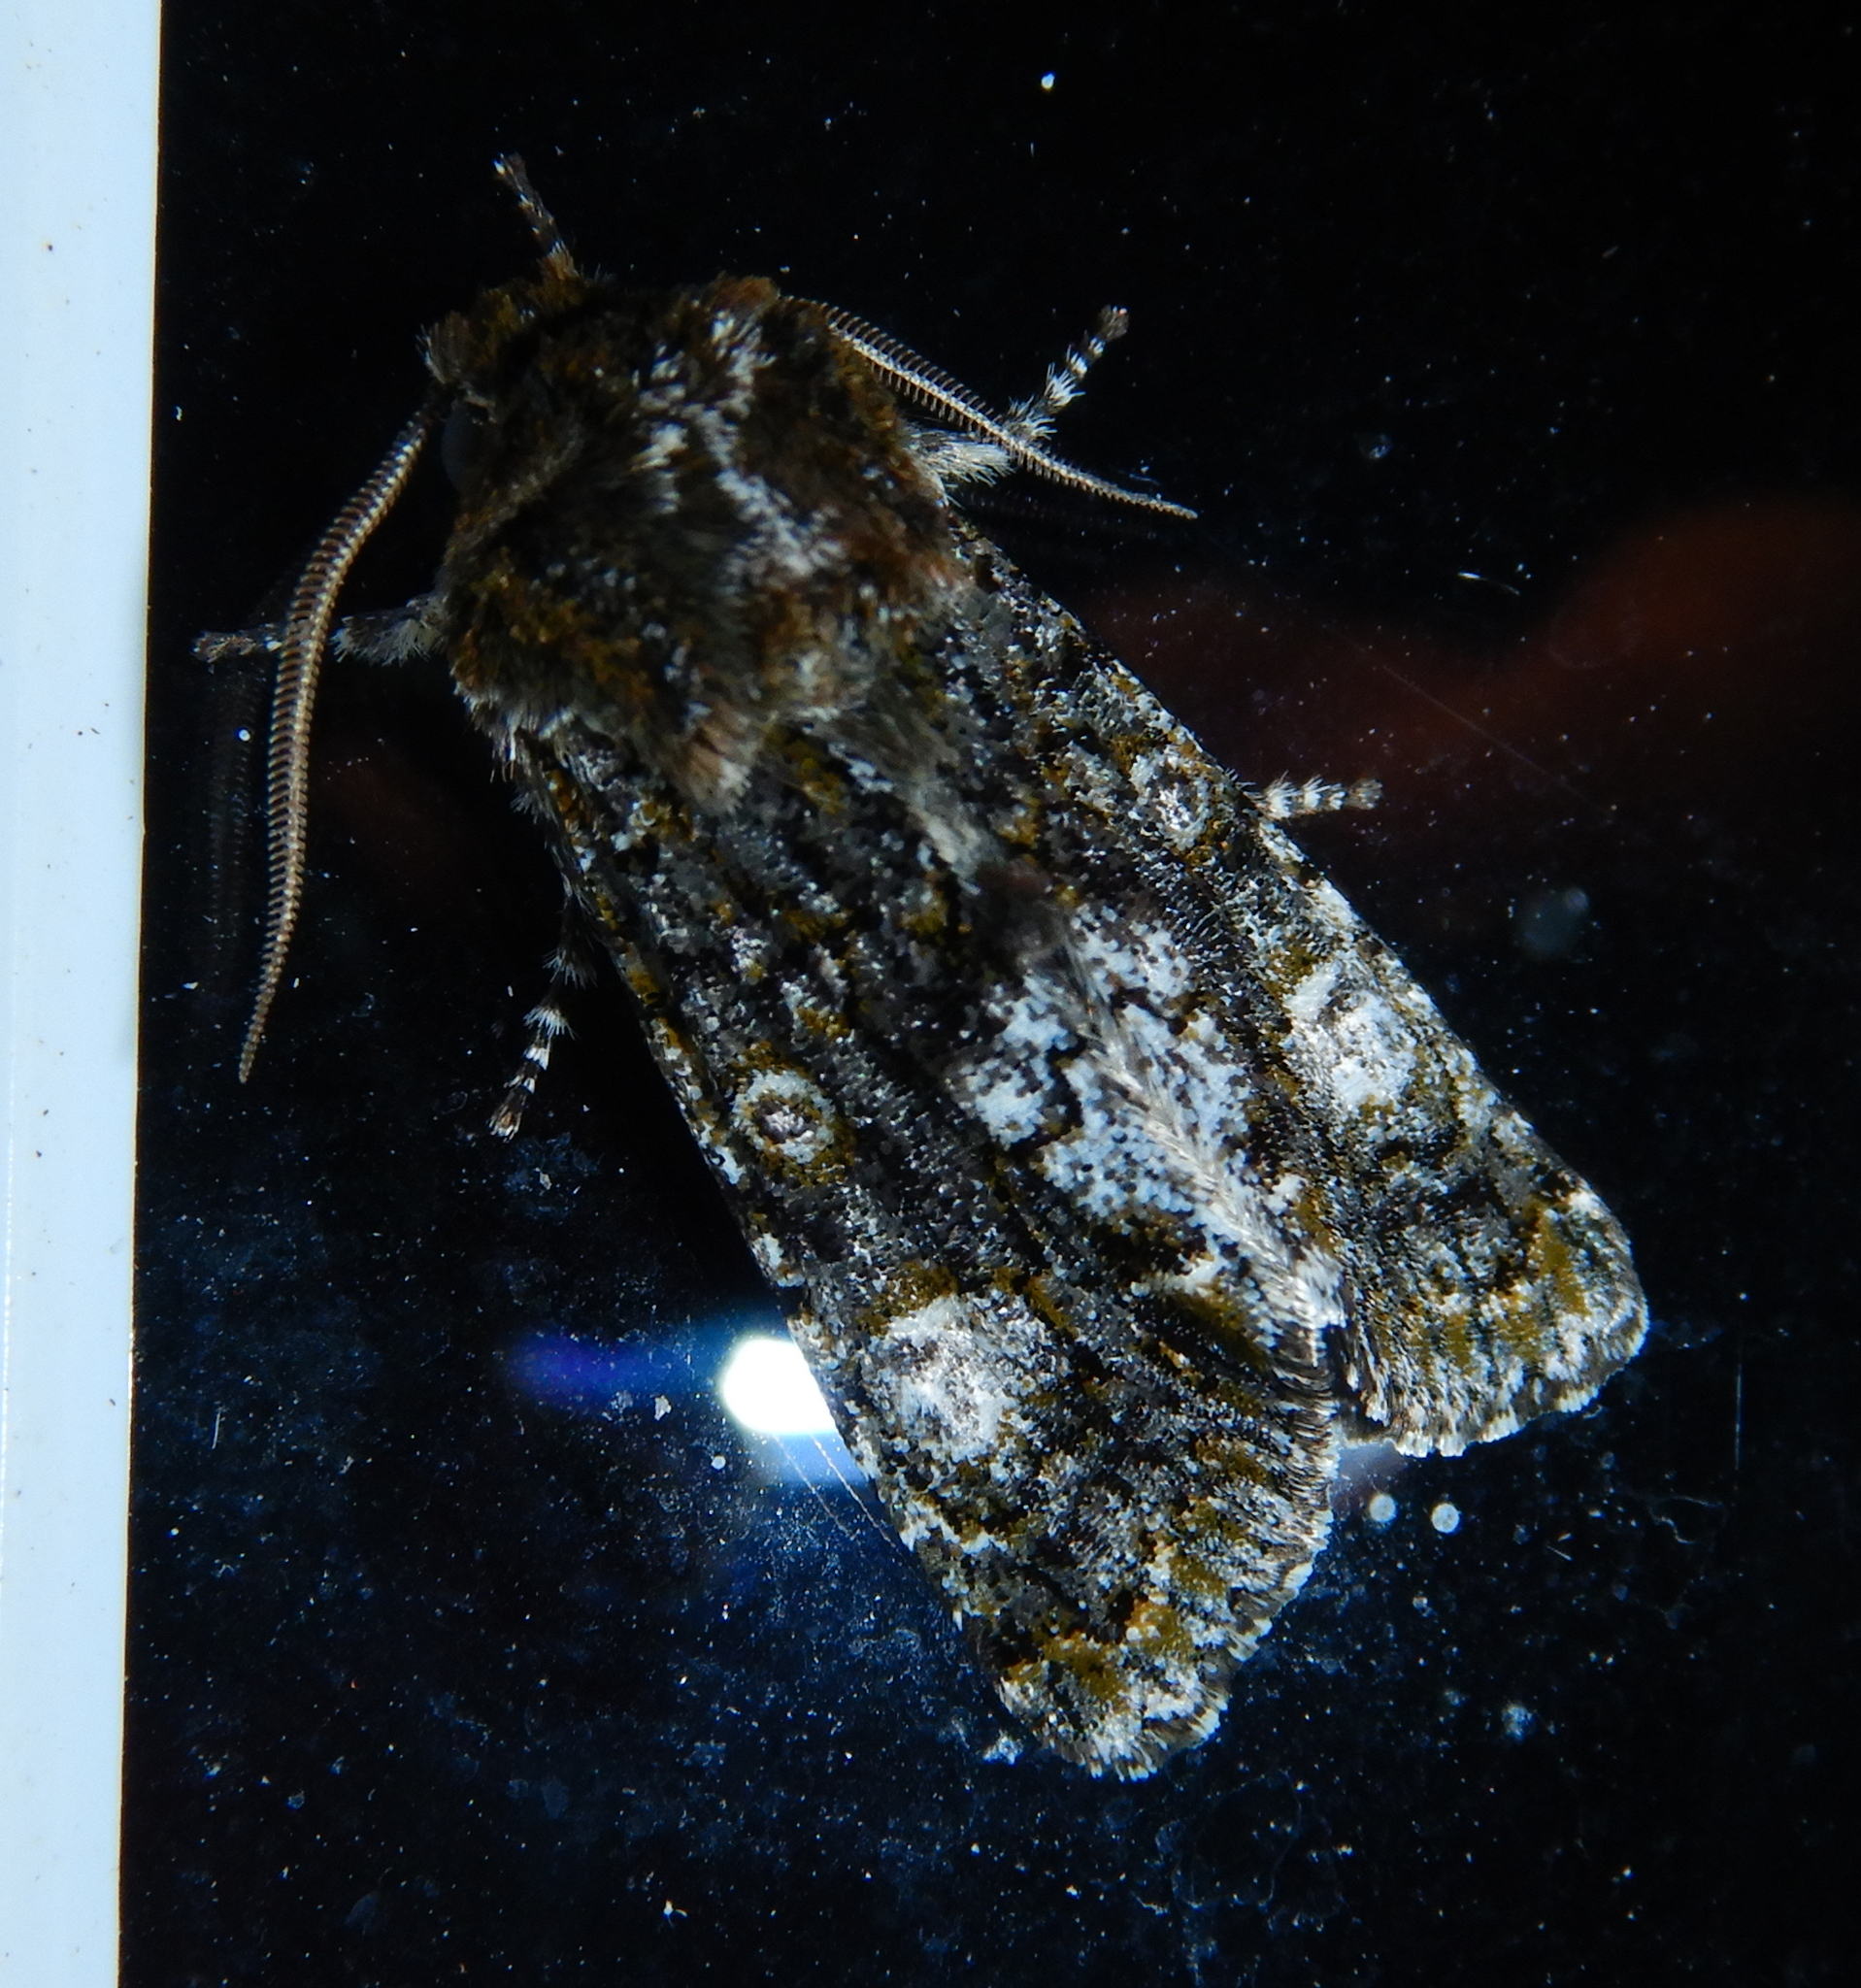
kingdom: Animalia
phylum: Arthropoda
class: Insecta
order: Lepidoptera
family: Noctuidae
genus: Psaphida
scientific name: Psaphida grotei
